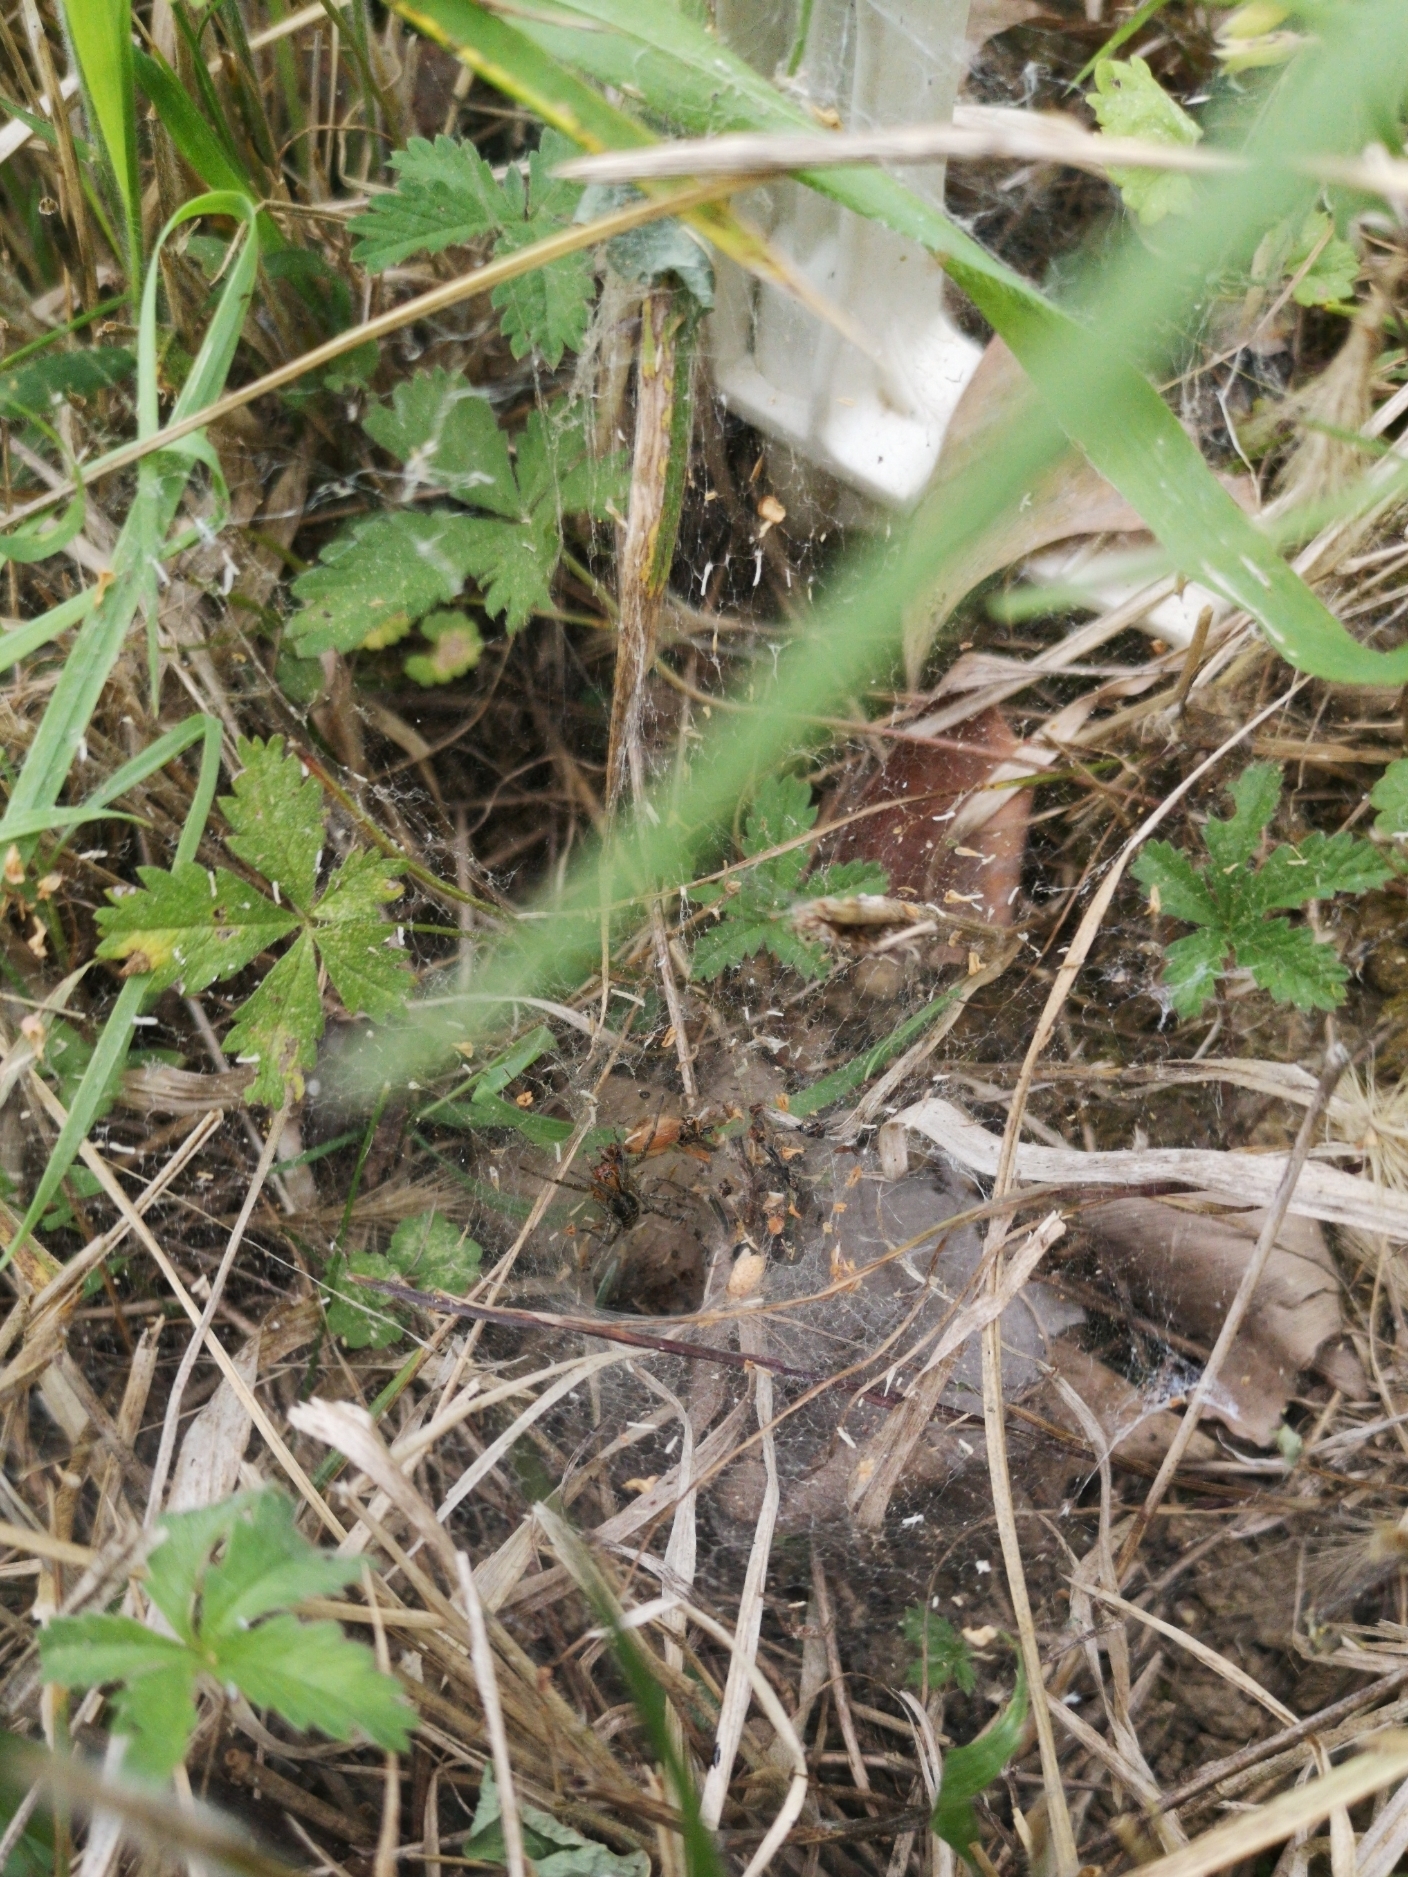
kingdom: Animalia
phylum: Arthropoda
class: Arachnida
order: Araneae
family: Agelenidae
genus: Agelena
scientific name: Agelena labyrinthica
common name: Labyrinth spider
